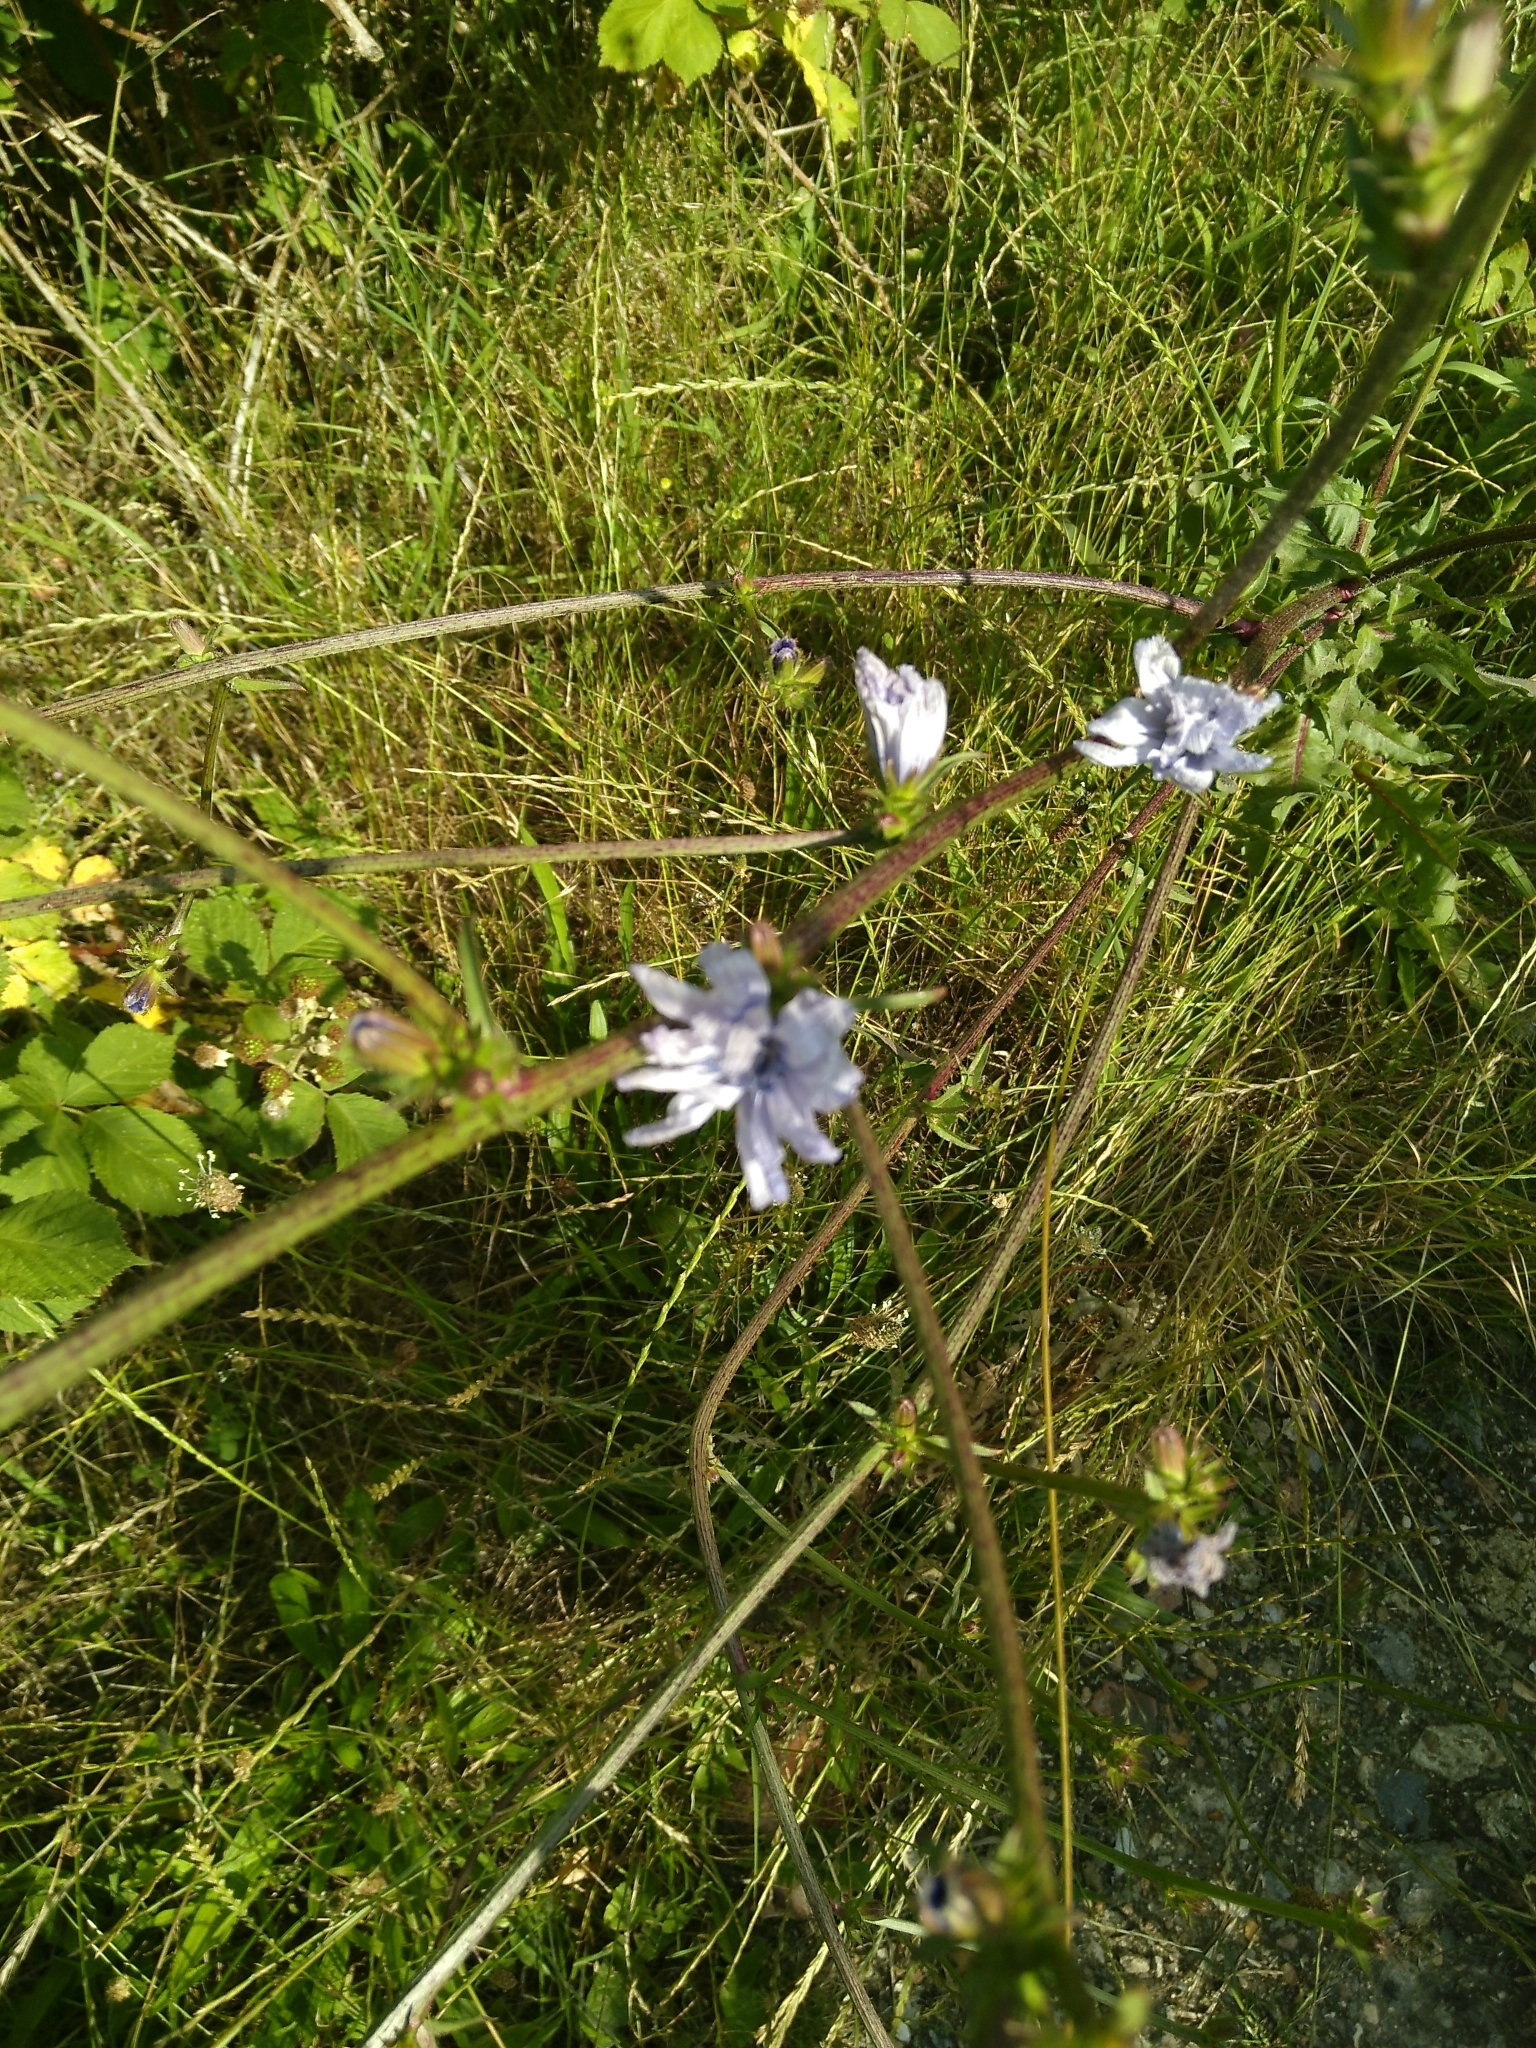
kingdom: Plantae
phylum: Tracheophyta
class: Magnoliopsida
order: Asterales
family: Asteraceae
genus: Cichorium
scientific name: Cichorium intybus
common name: Chicory
